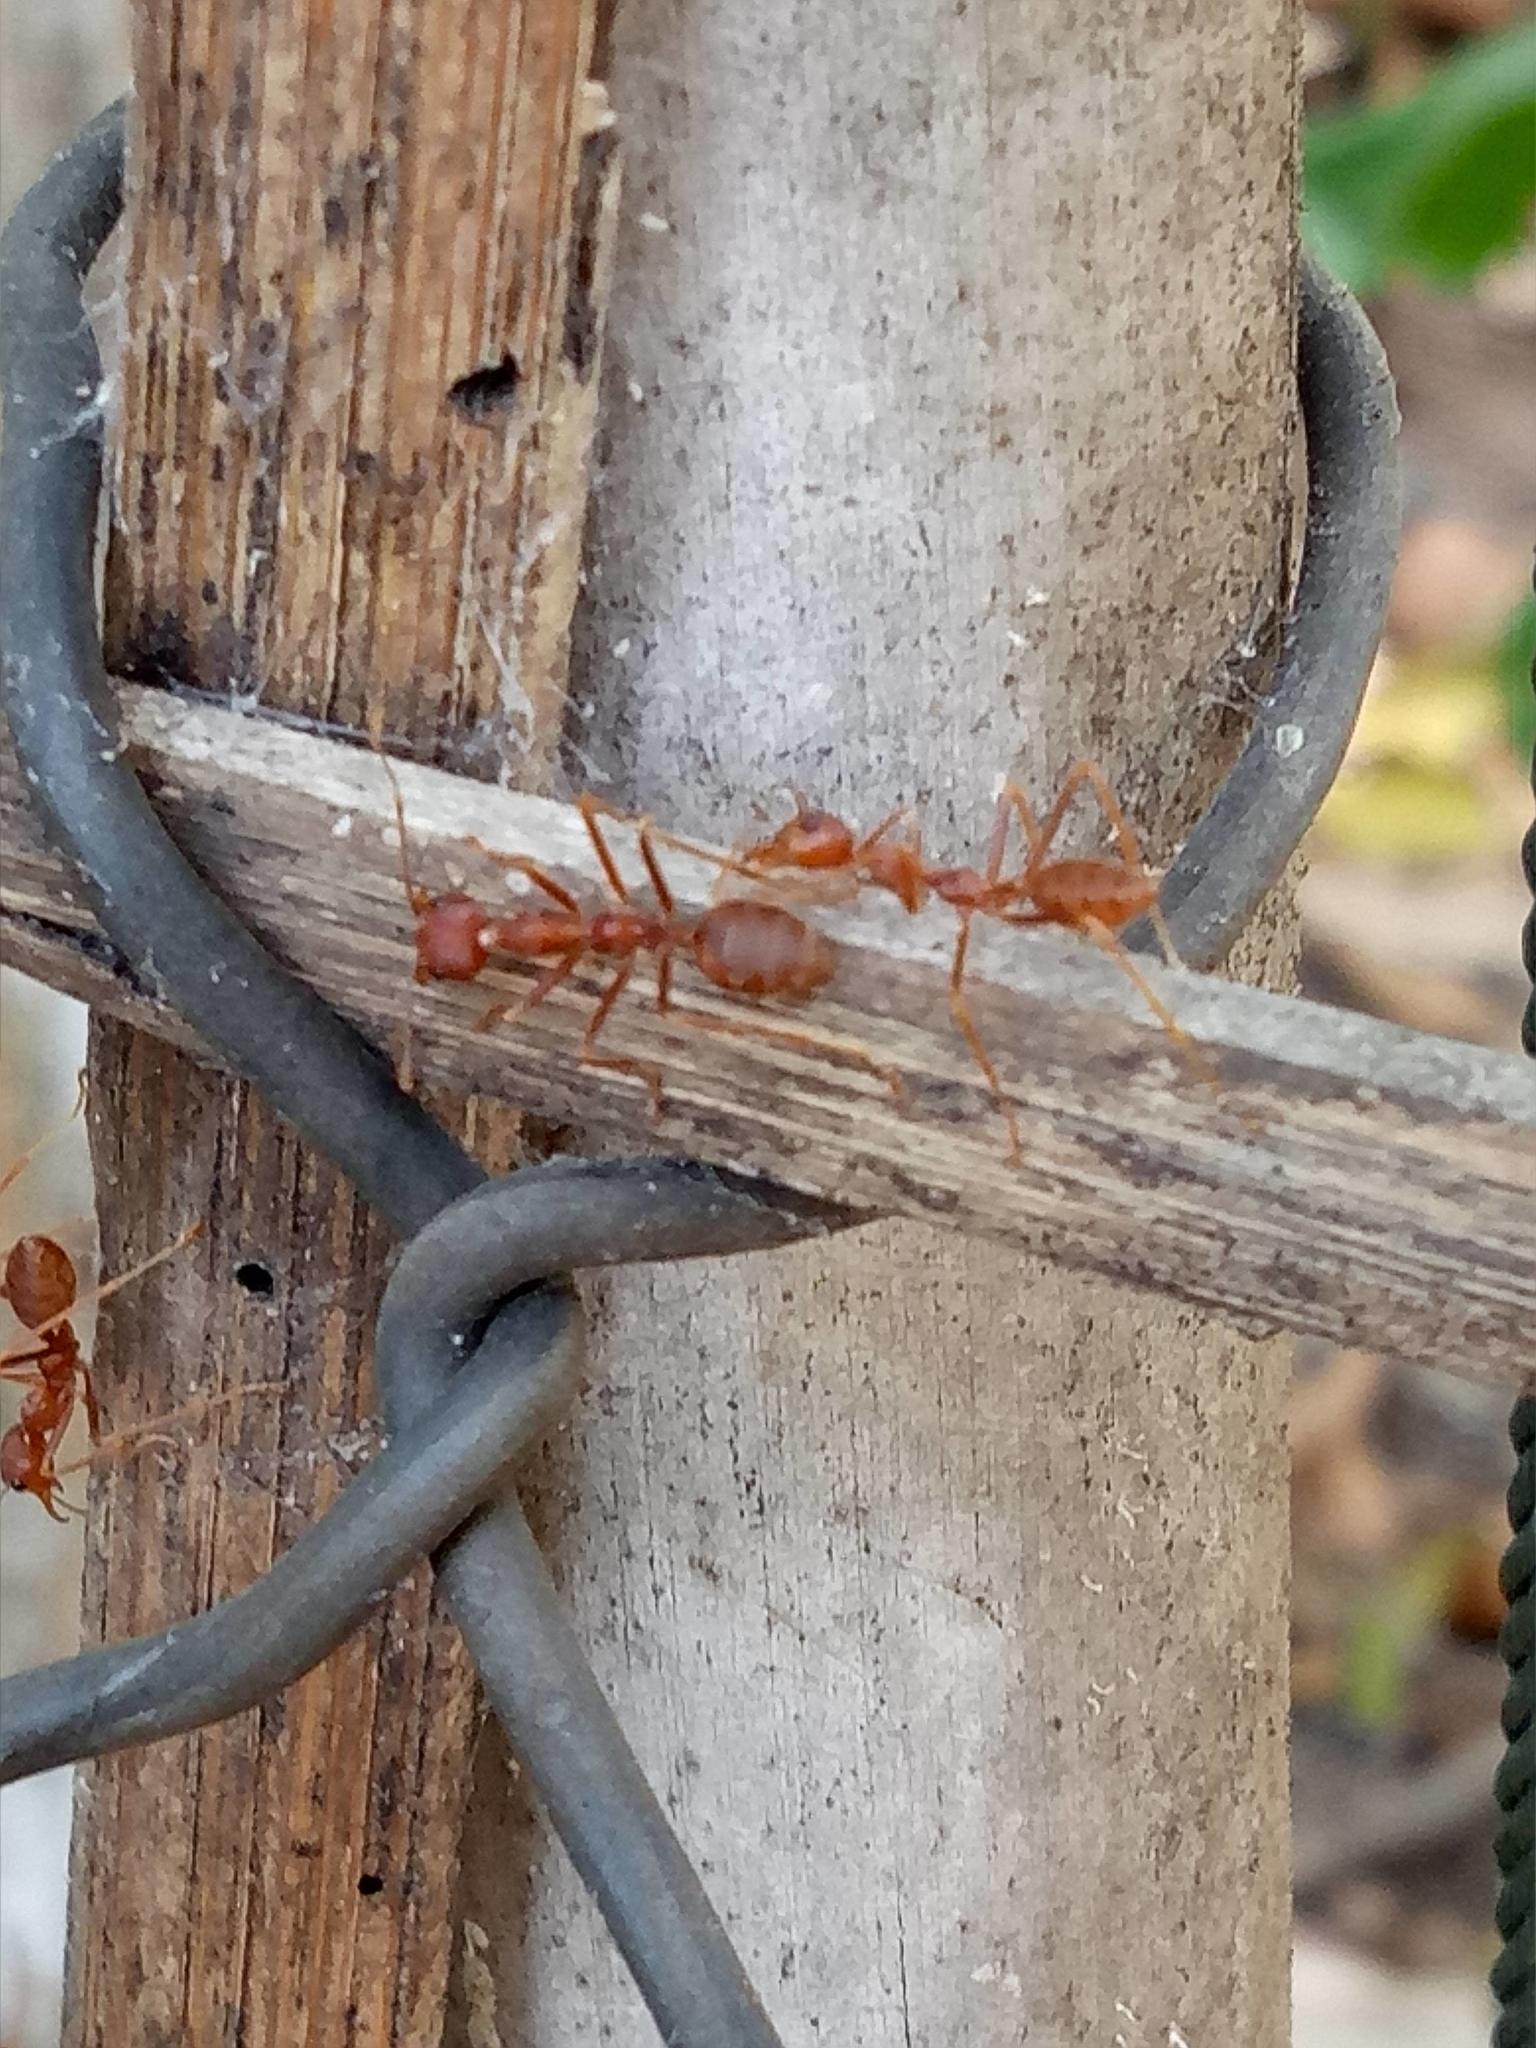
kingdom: Animalia
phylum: Arthropoda
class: Insecta
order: Hymenoptera
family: Formicidae
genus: Oecophylla
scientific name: Oecophylla smaragdina
